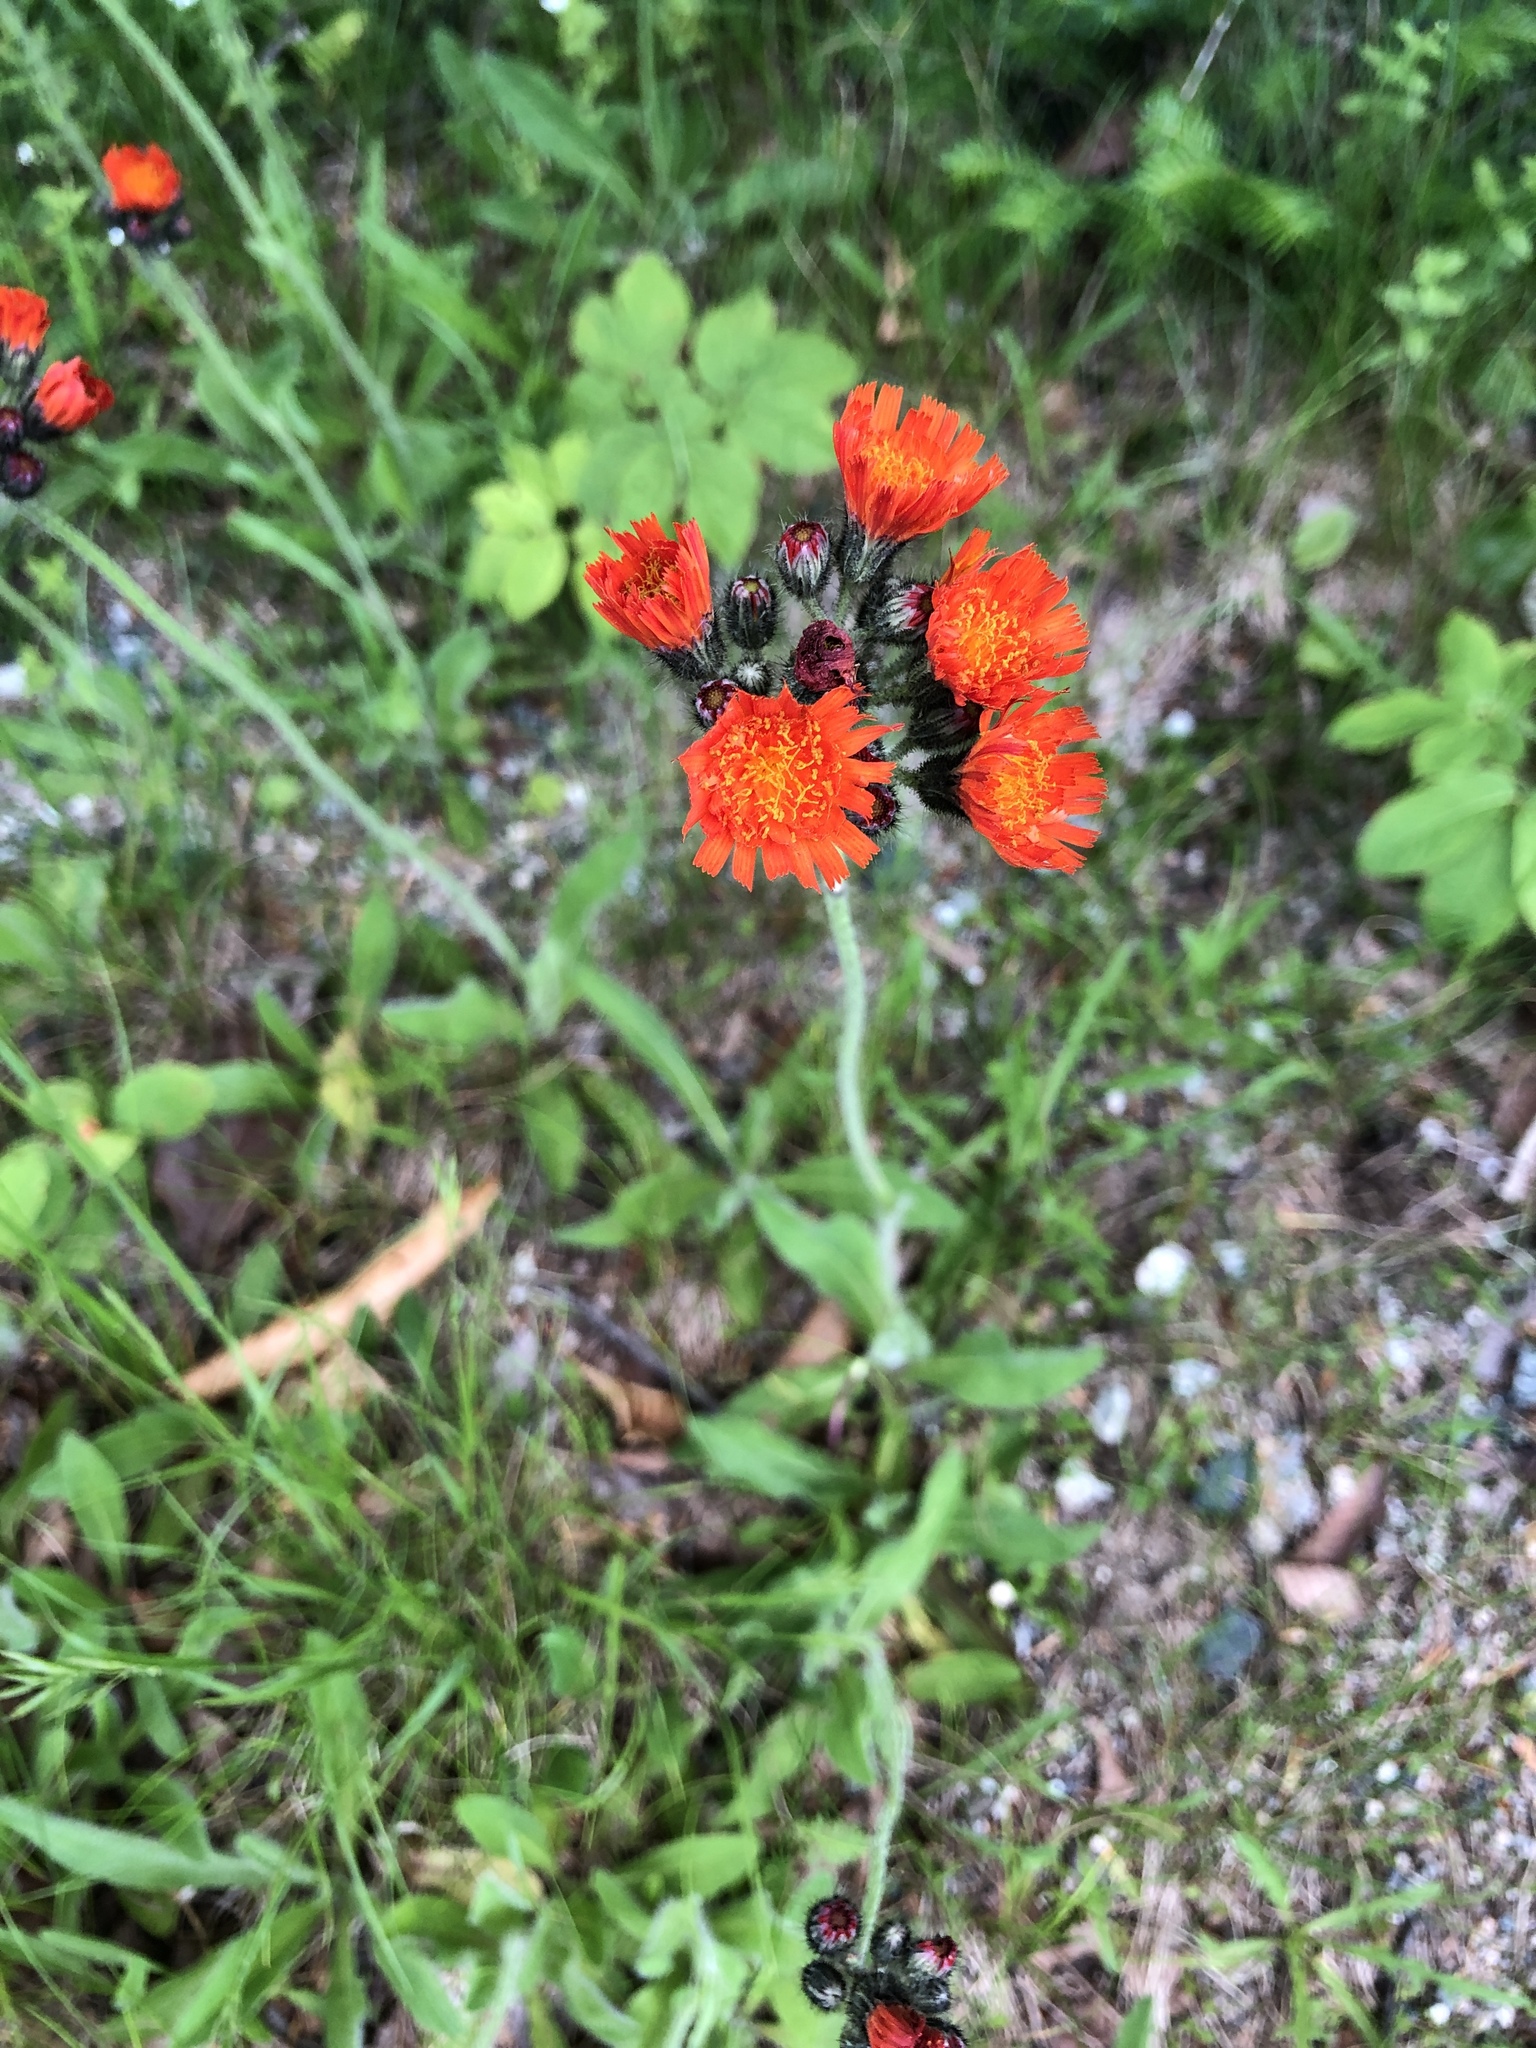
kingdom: Plantae
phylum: Tracheophyta
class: Magnoliopsida
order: Asterales
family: Asteraceae
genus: Pilosella
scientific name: Pilosella aurantiaca
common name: Fox-and-cubs
